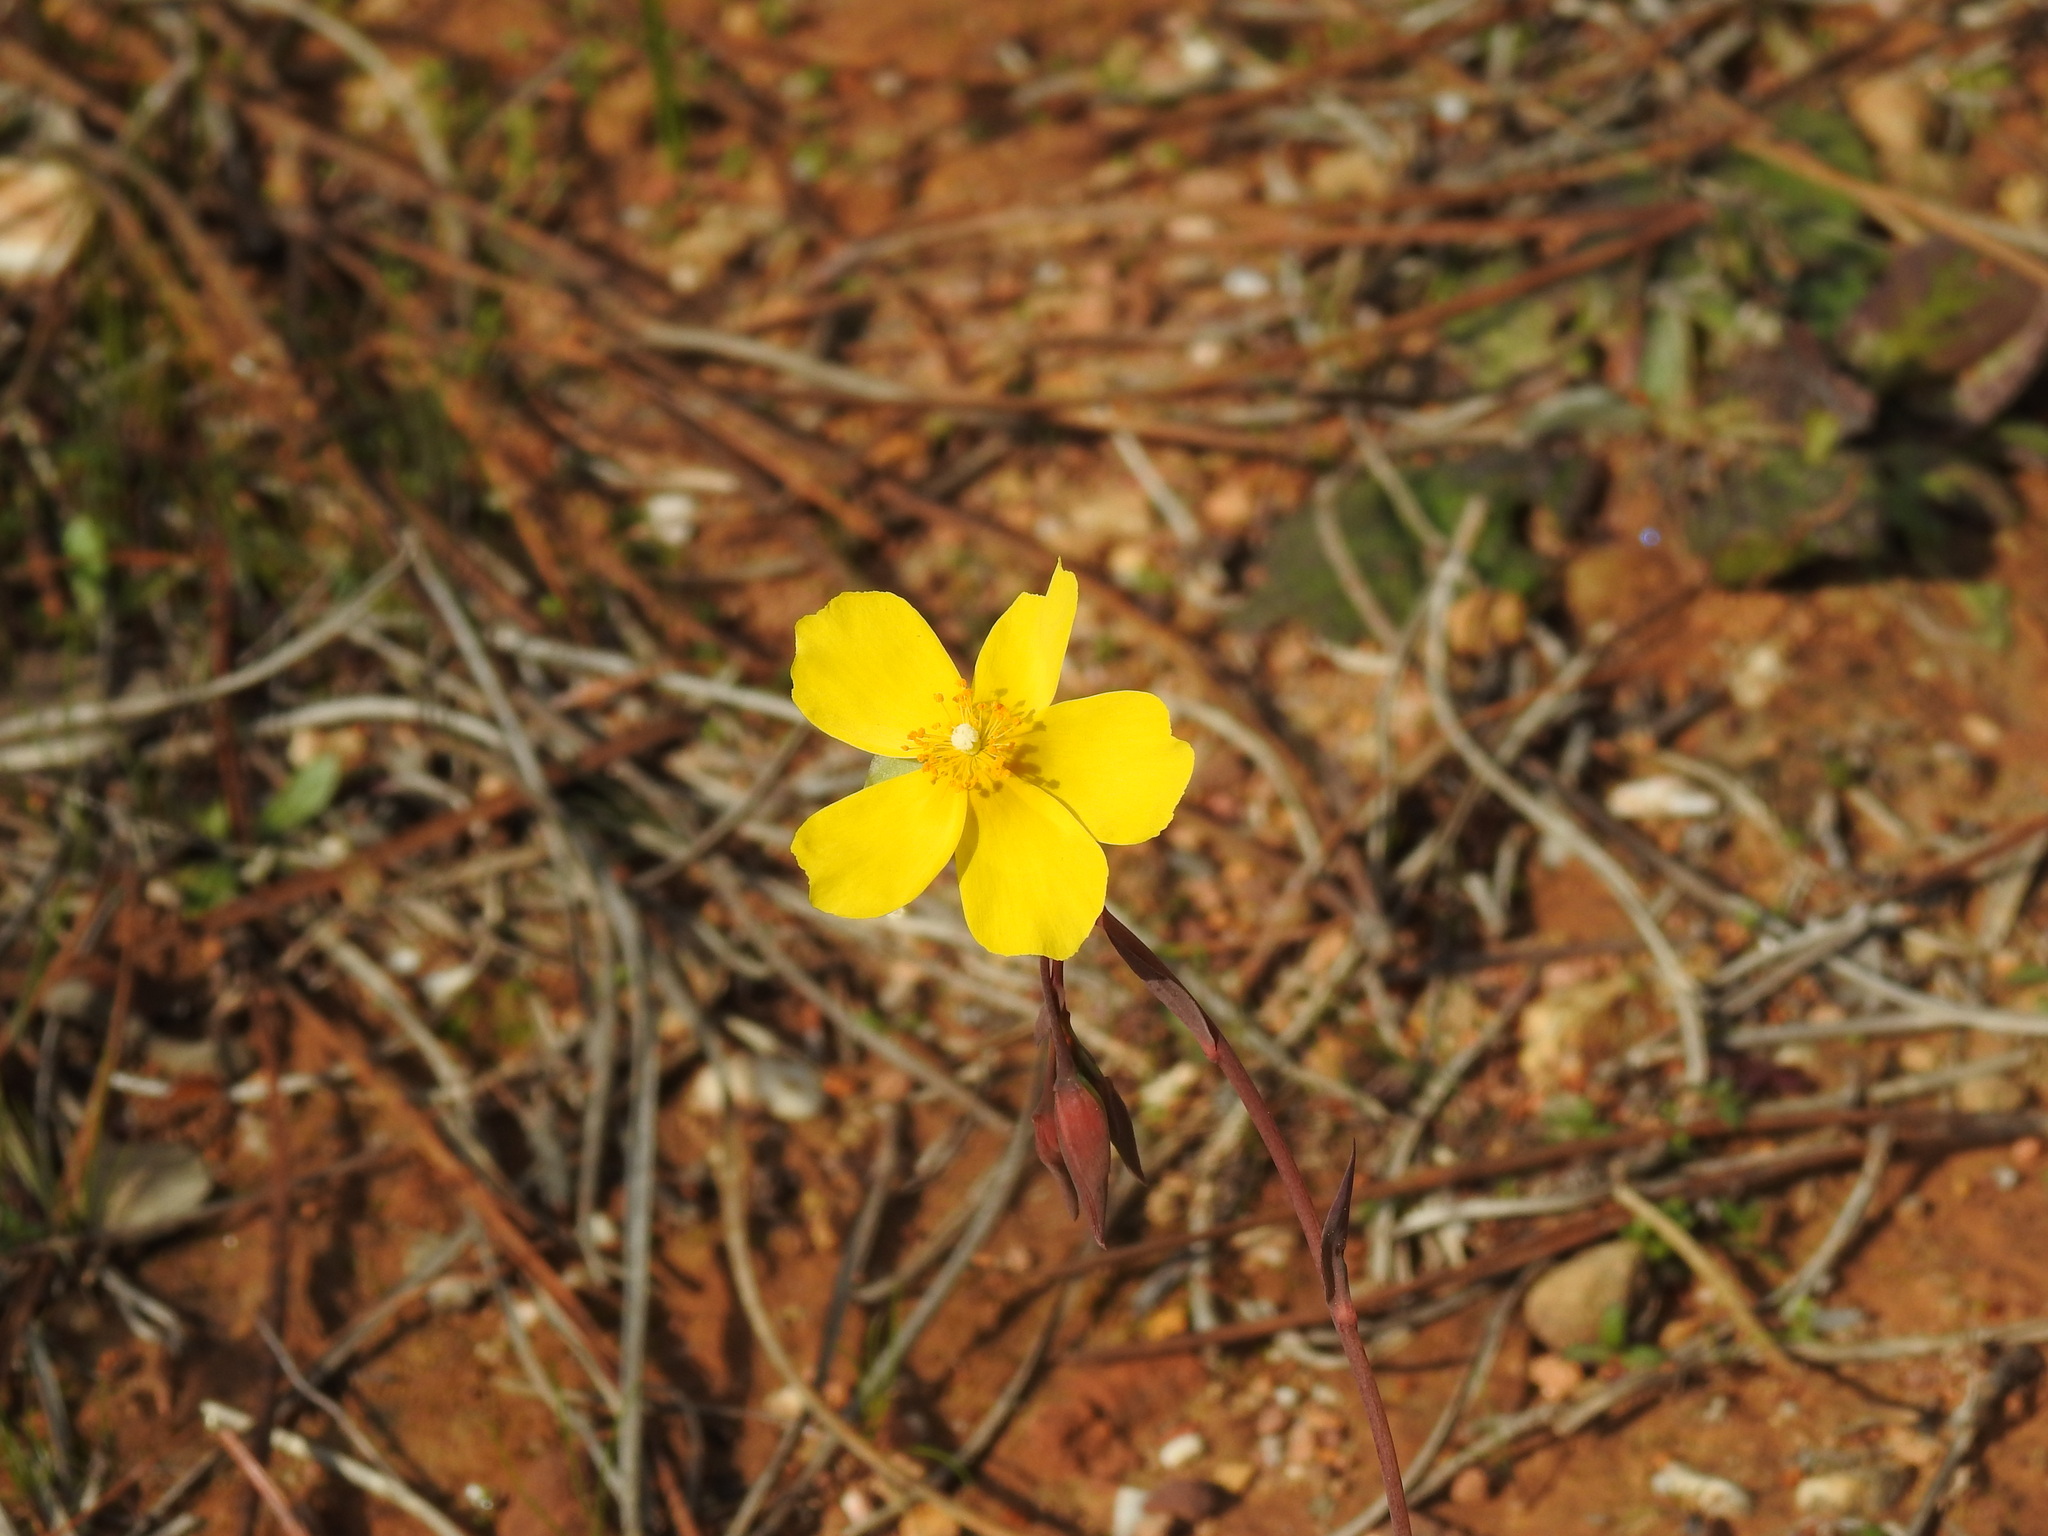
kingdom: Plantae
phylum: Tracheophyta
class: Magnoliopsida
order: Malvales
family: Cistaceae
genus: Tuberaria
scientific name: Tuberaria lignosa
